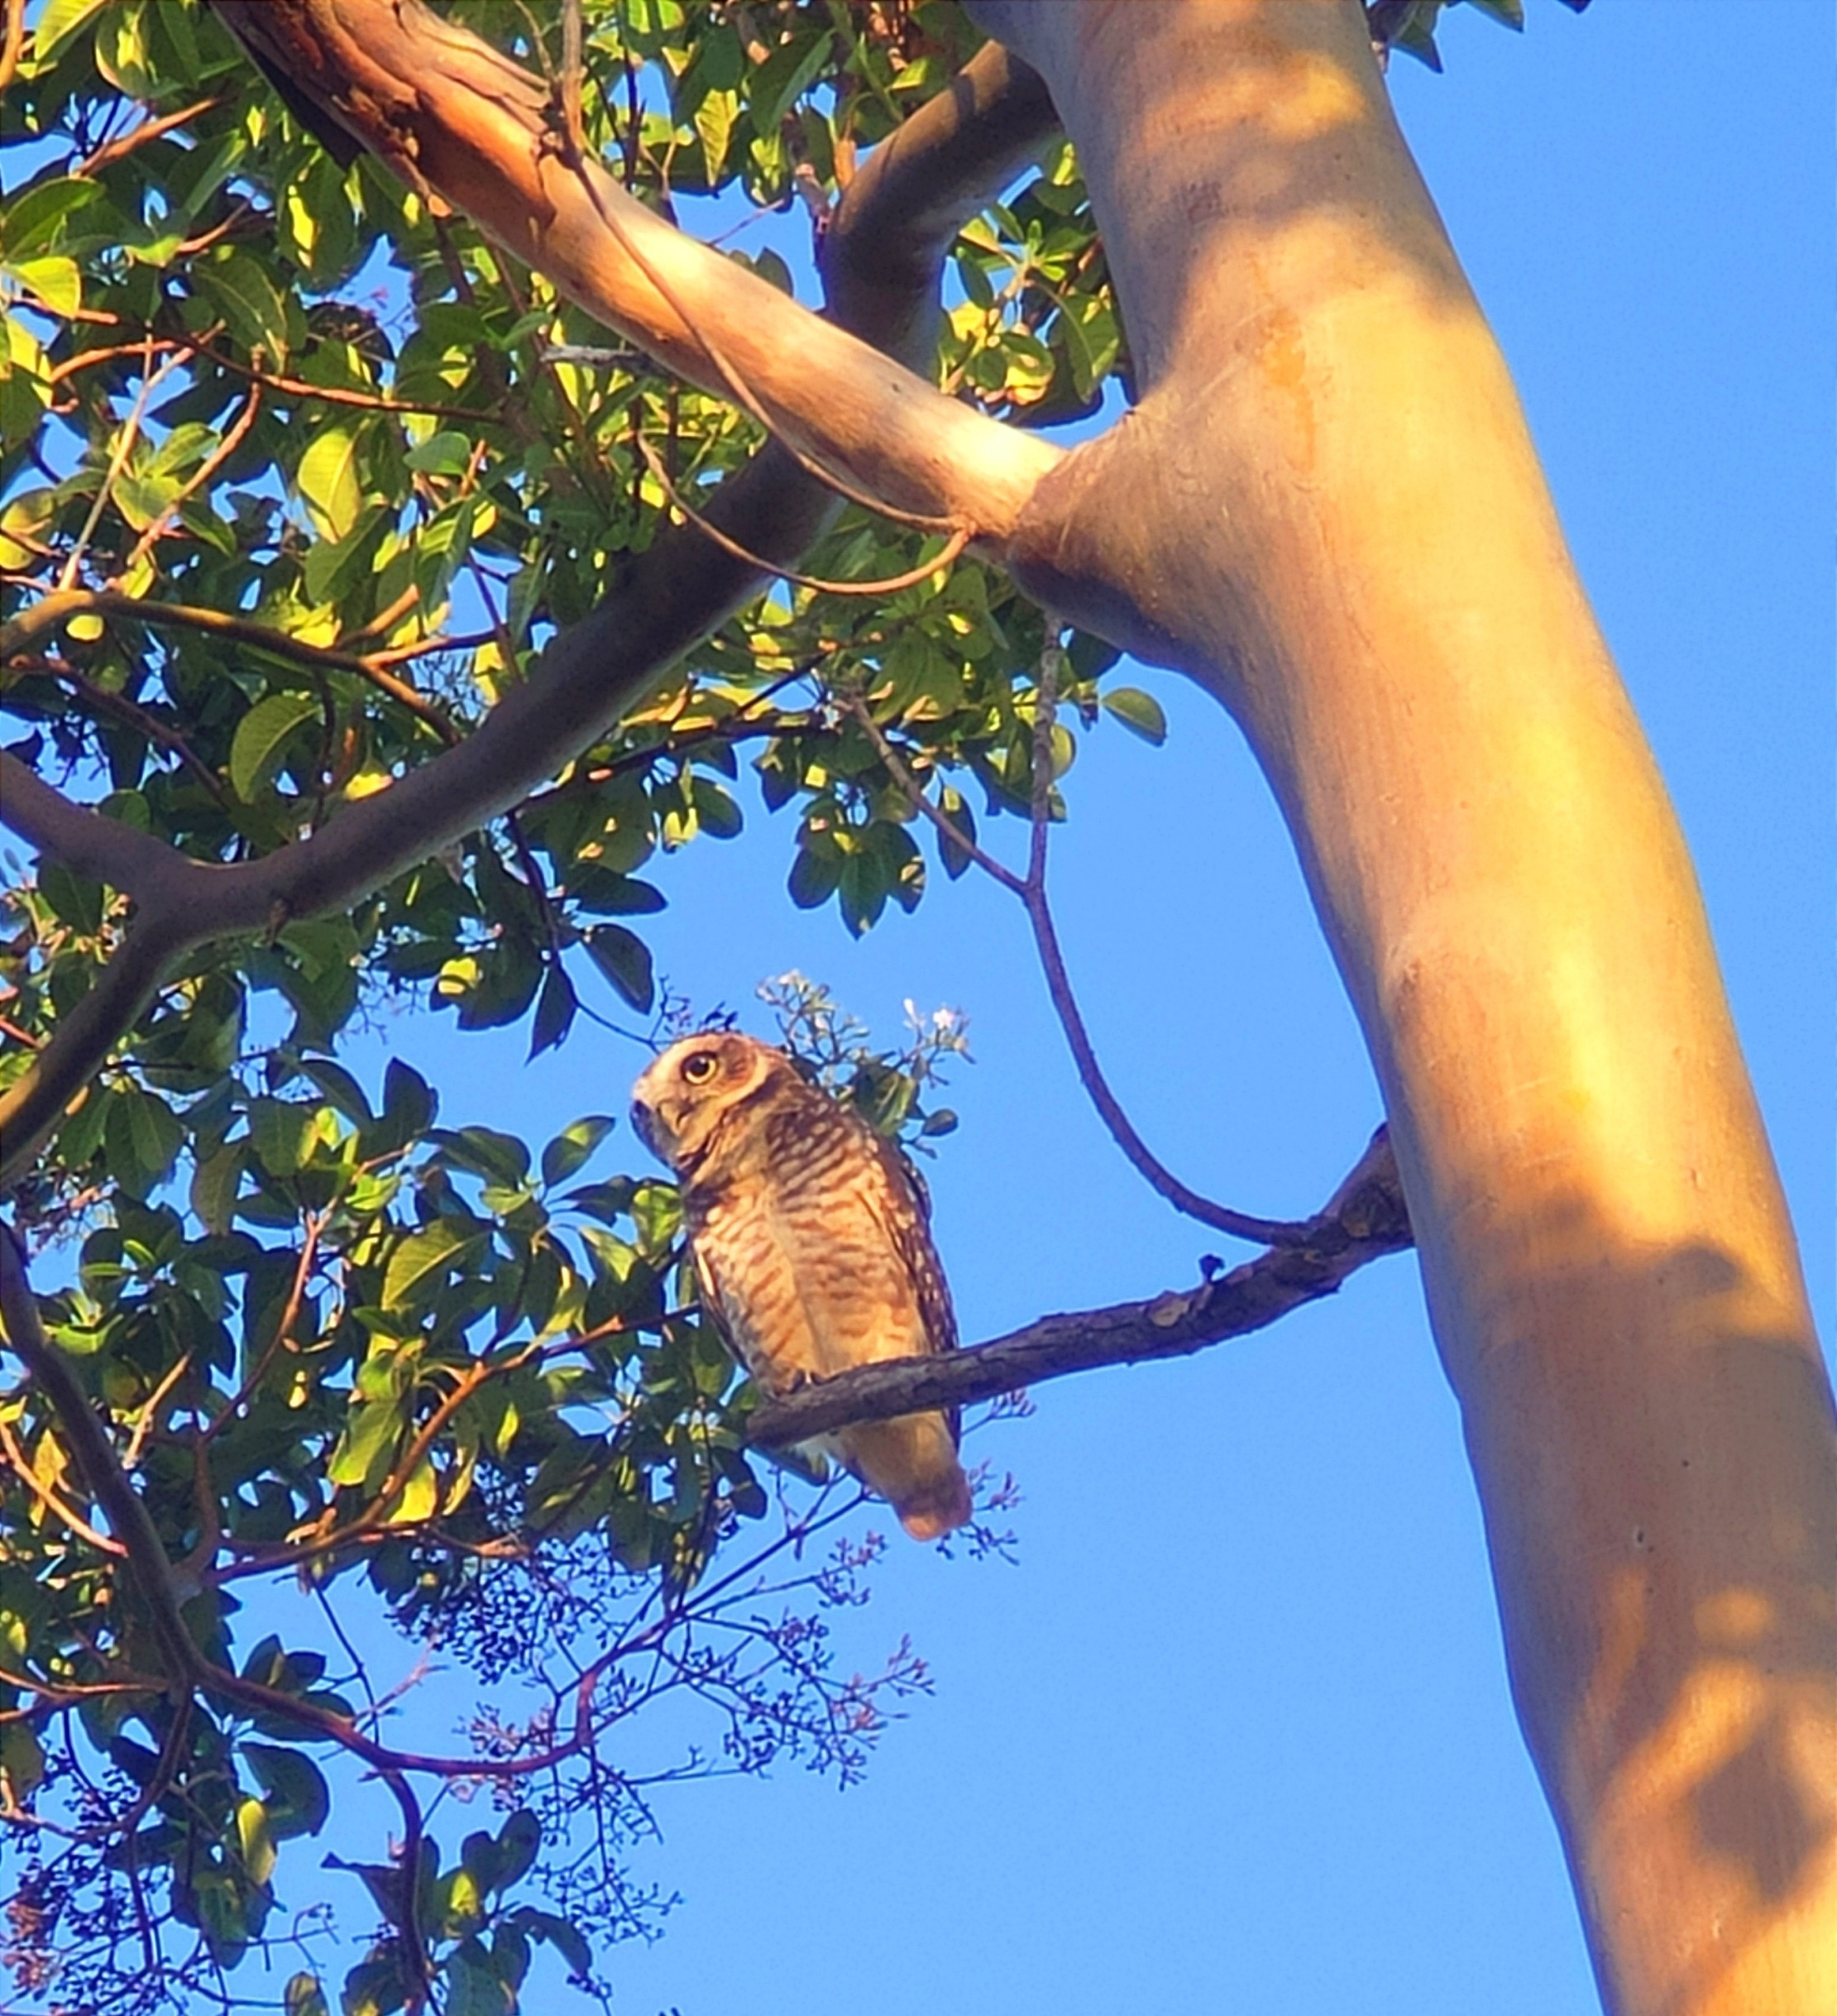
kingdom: Animalia
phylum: Chordata
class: Aves
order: Strigiformes
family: Strigidae
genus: Athene
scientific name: Athene cunicularia
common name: Burrowing owl
